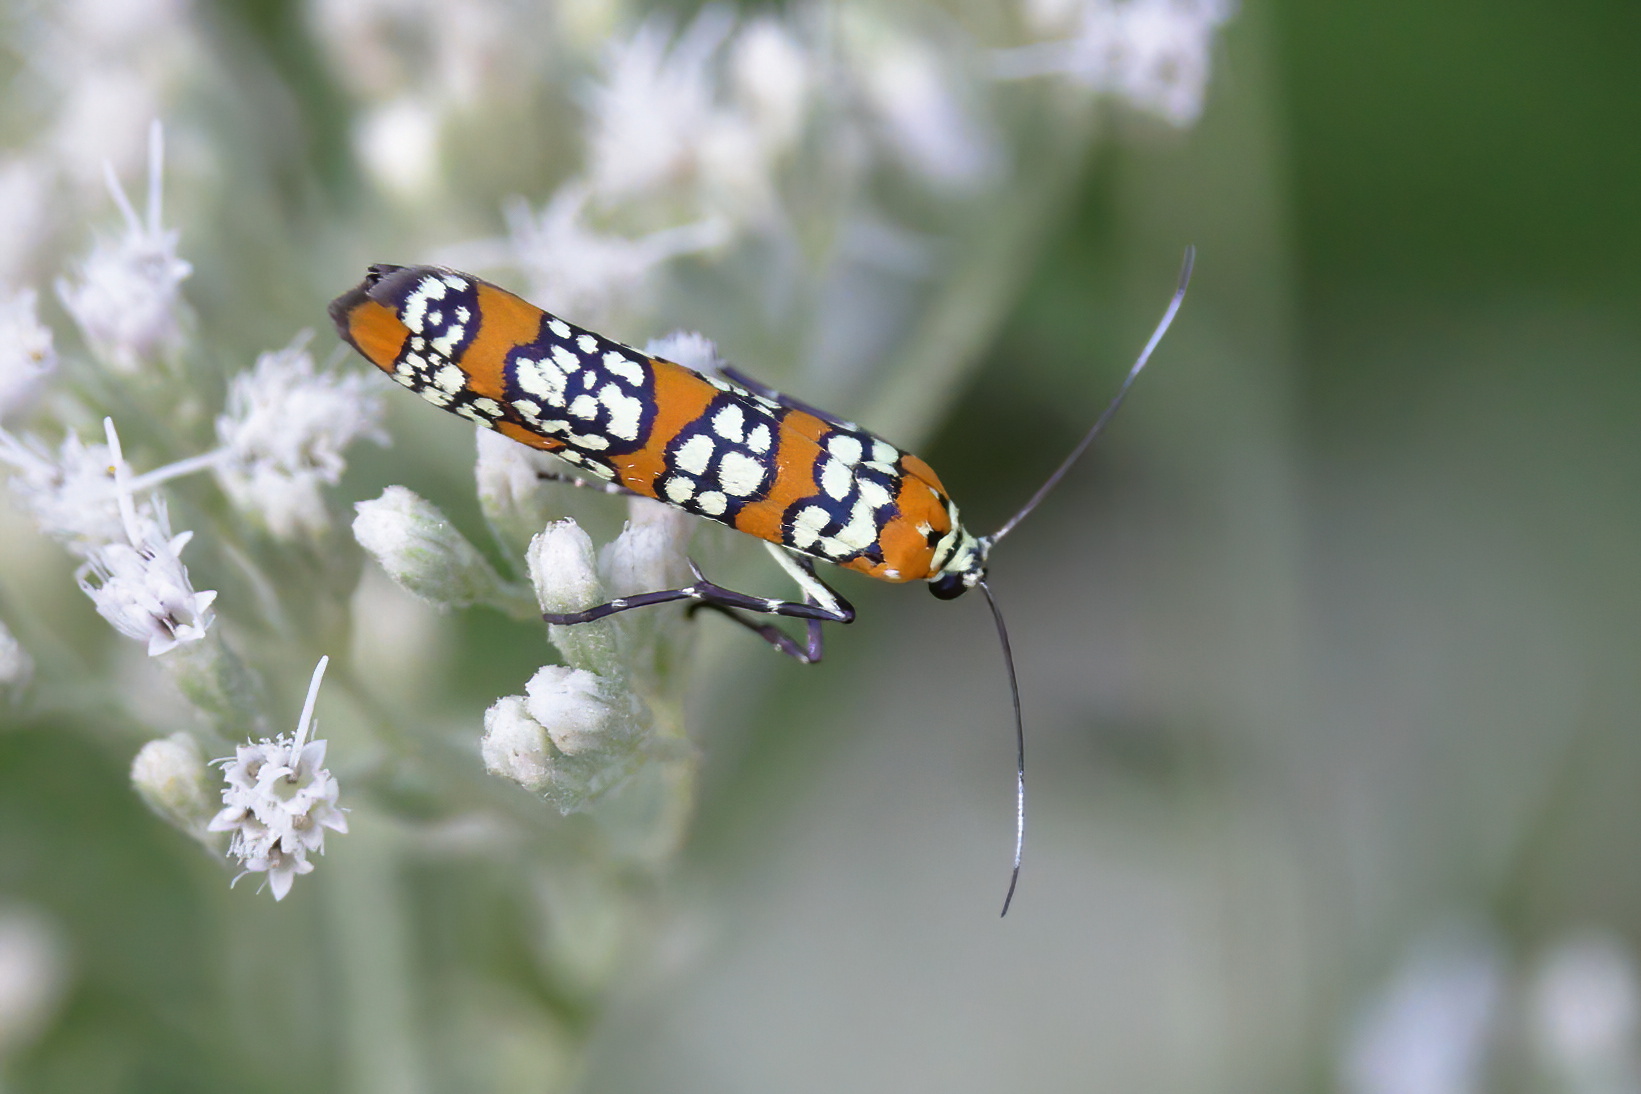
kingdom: Animalia
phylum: Arthropoda
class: Insecta
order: Lepidoptera
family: Attevidae
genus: Atteva
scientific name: Atteva punctella
